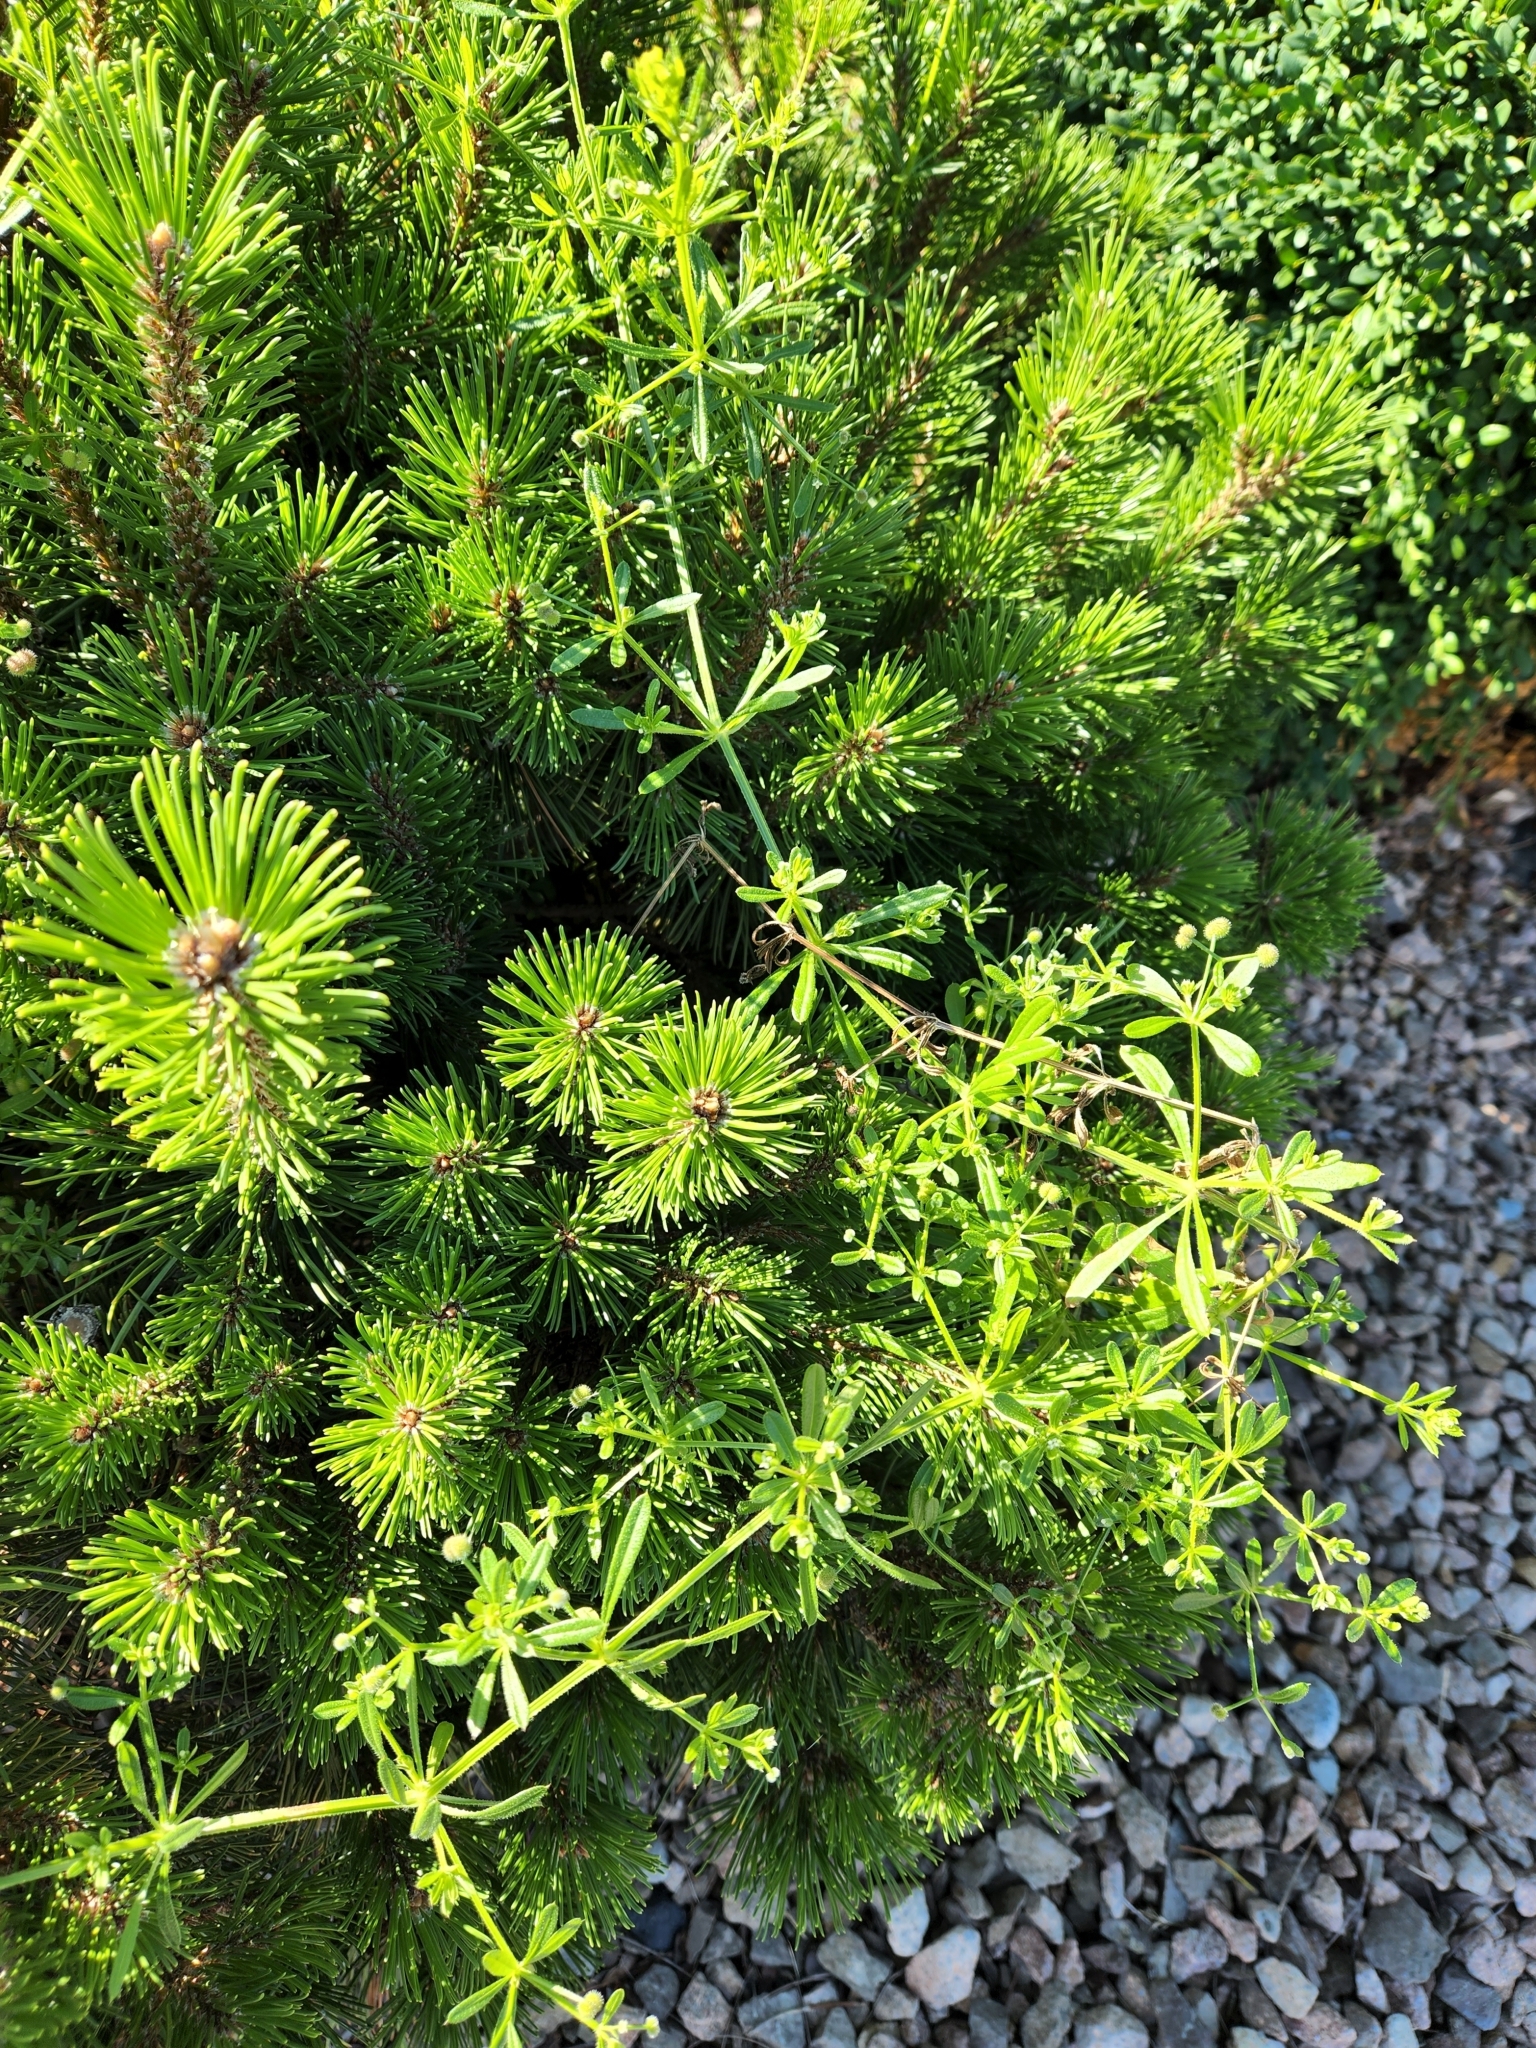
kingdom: Plantae
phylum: Tracheophyta
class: Magnoliopsida
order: Gentianales
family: Rubiaceae
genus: Galium
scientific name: Galium aparine
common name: Cleavers
